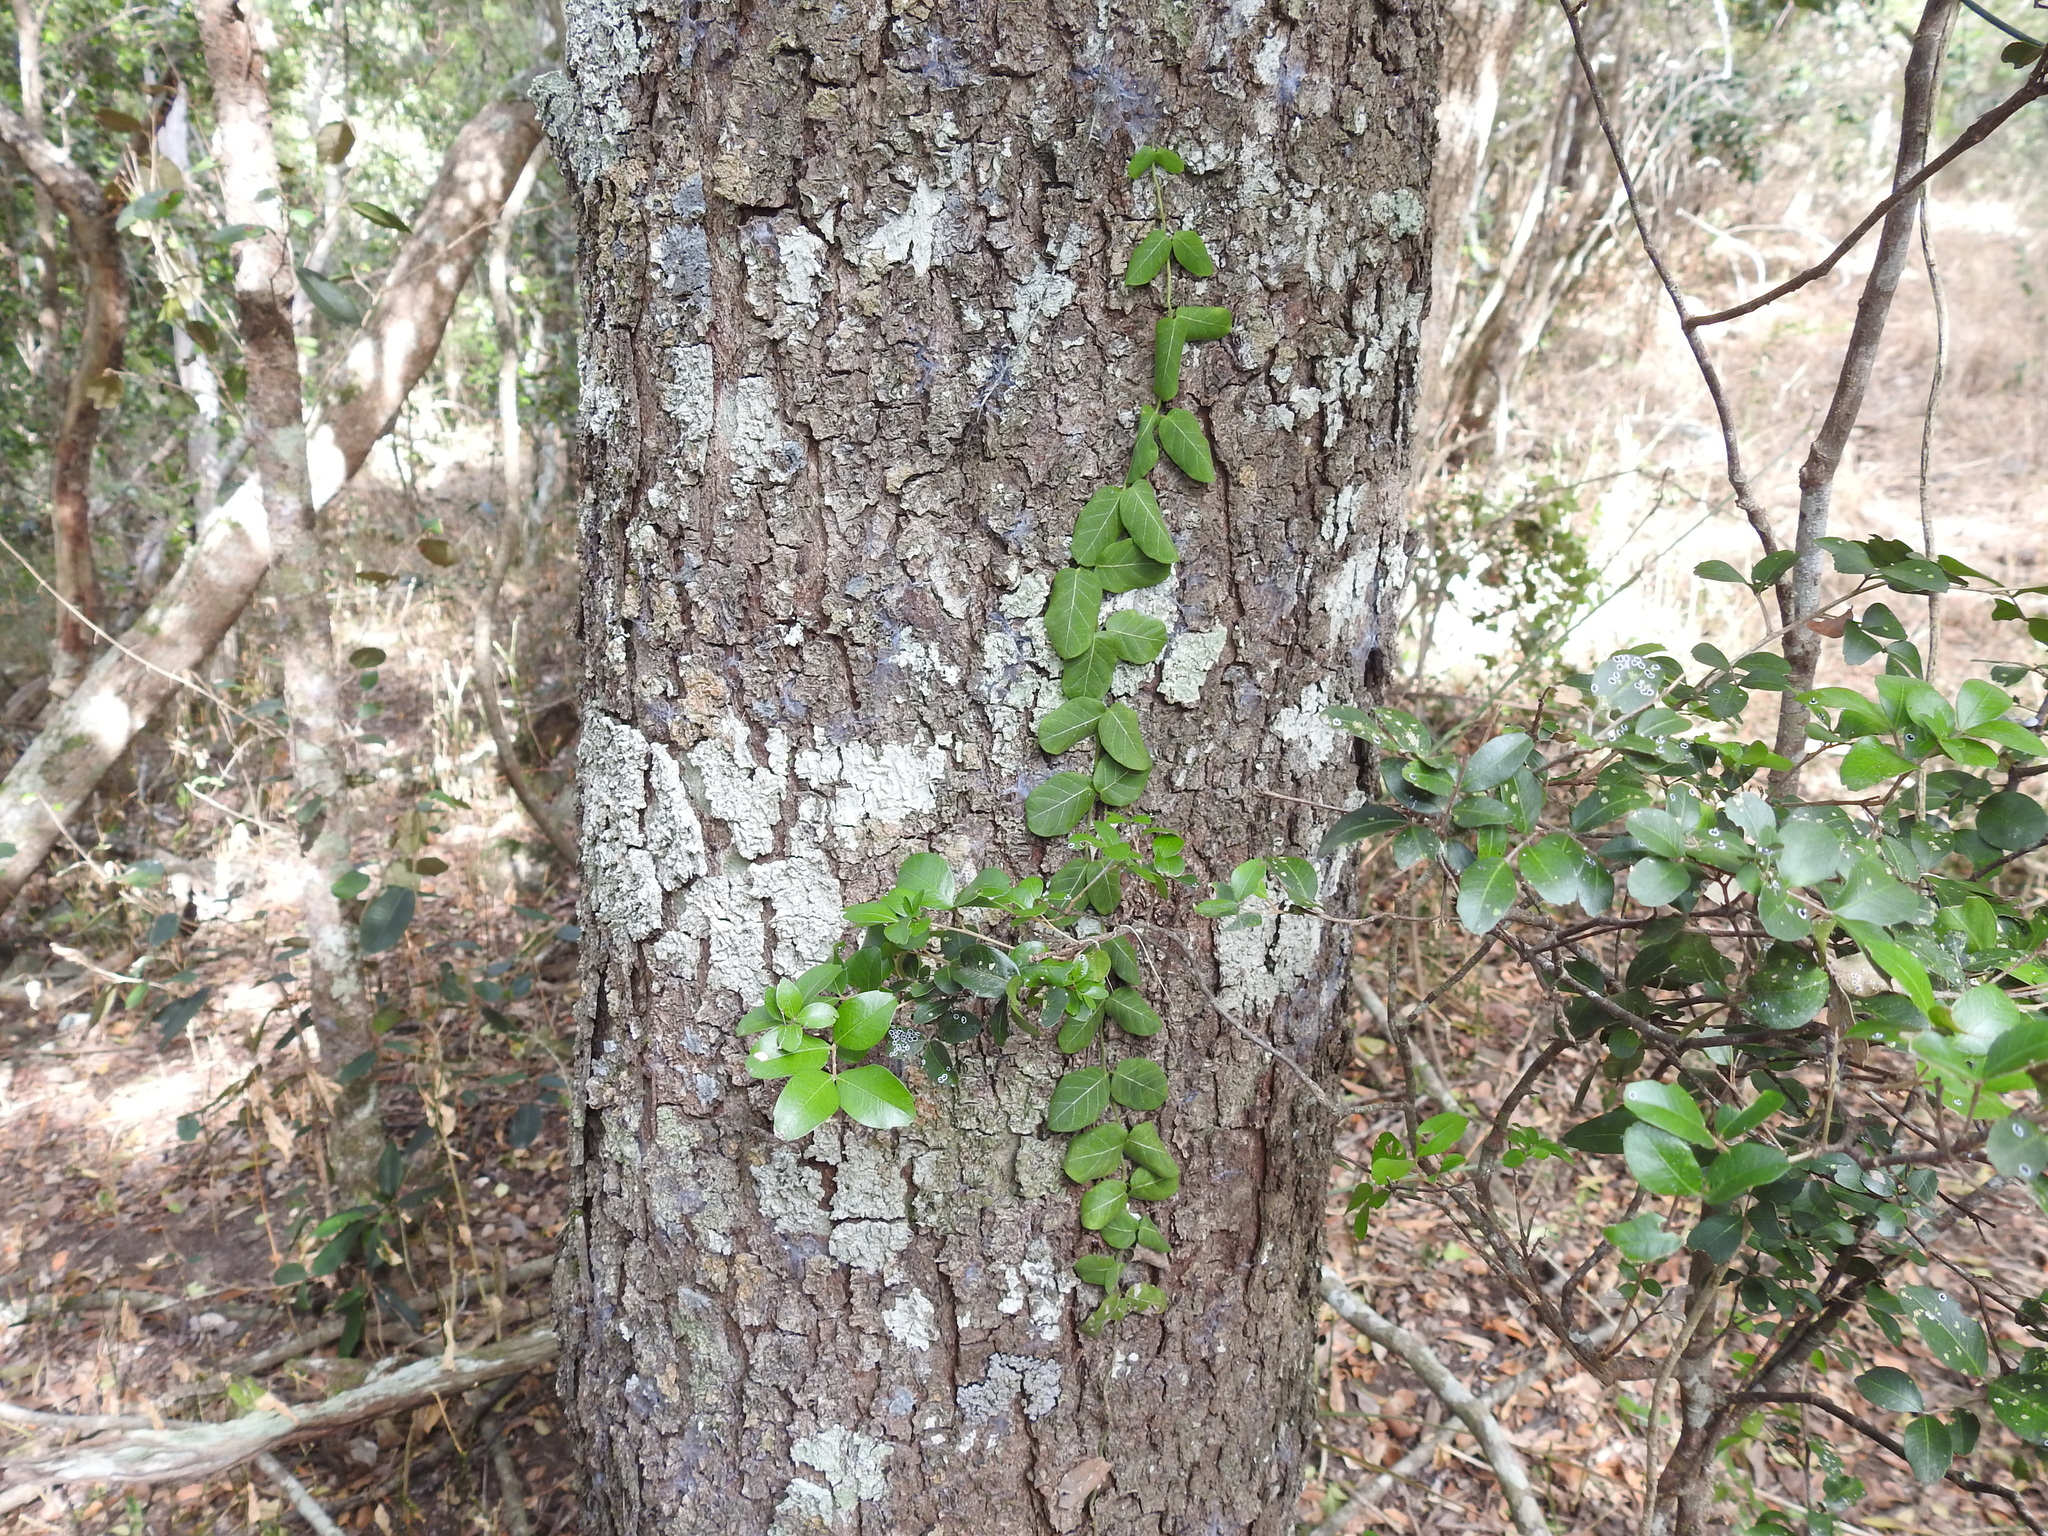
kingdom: Plantae
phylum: Tracheophyta
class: Magnoliopsida
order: Gentianales
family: Apocynaceae
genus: Parsonsia
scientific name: Parsonsia plaesiophylla
